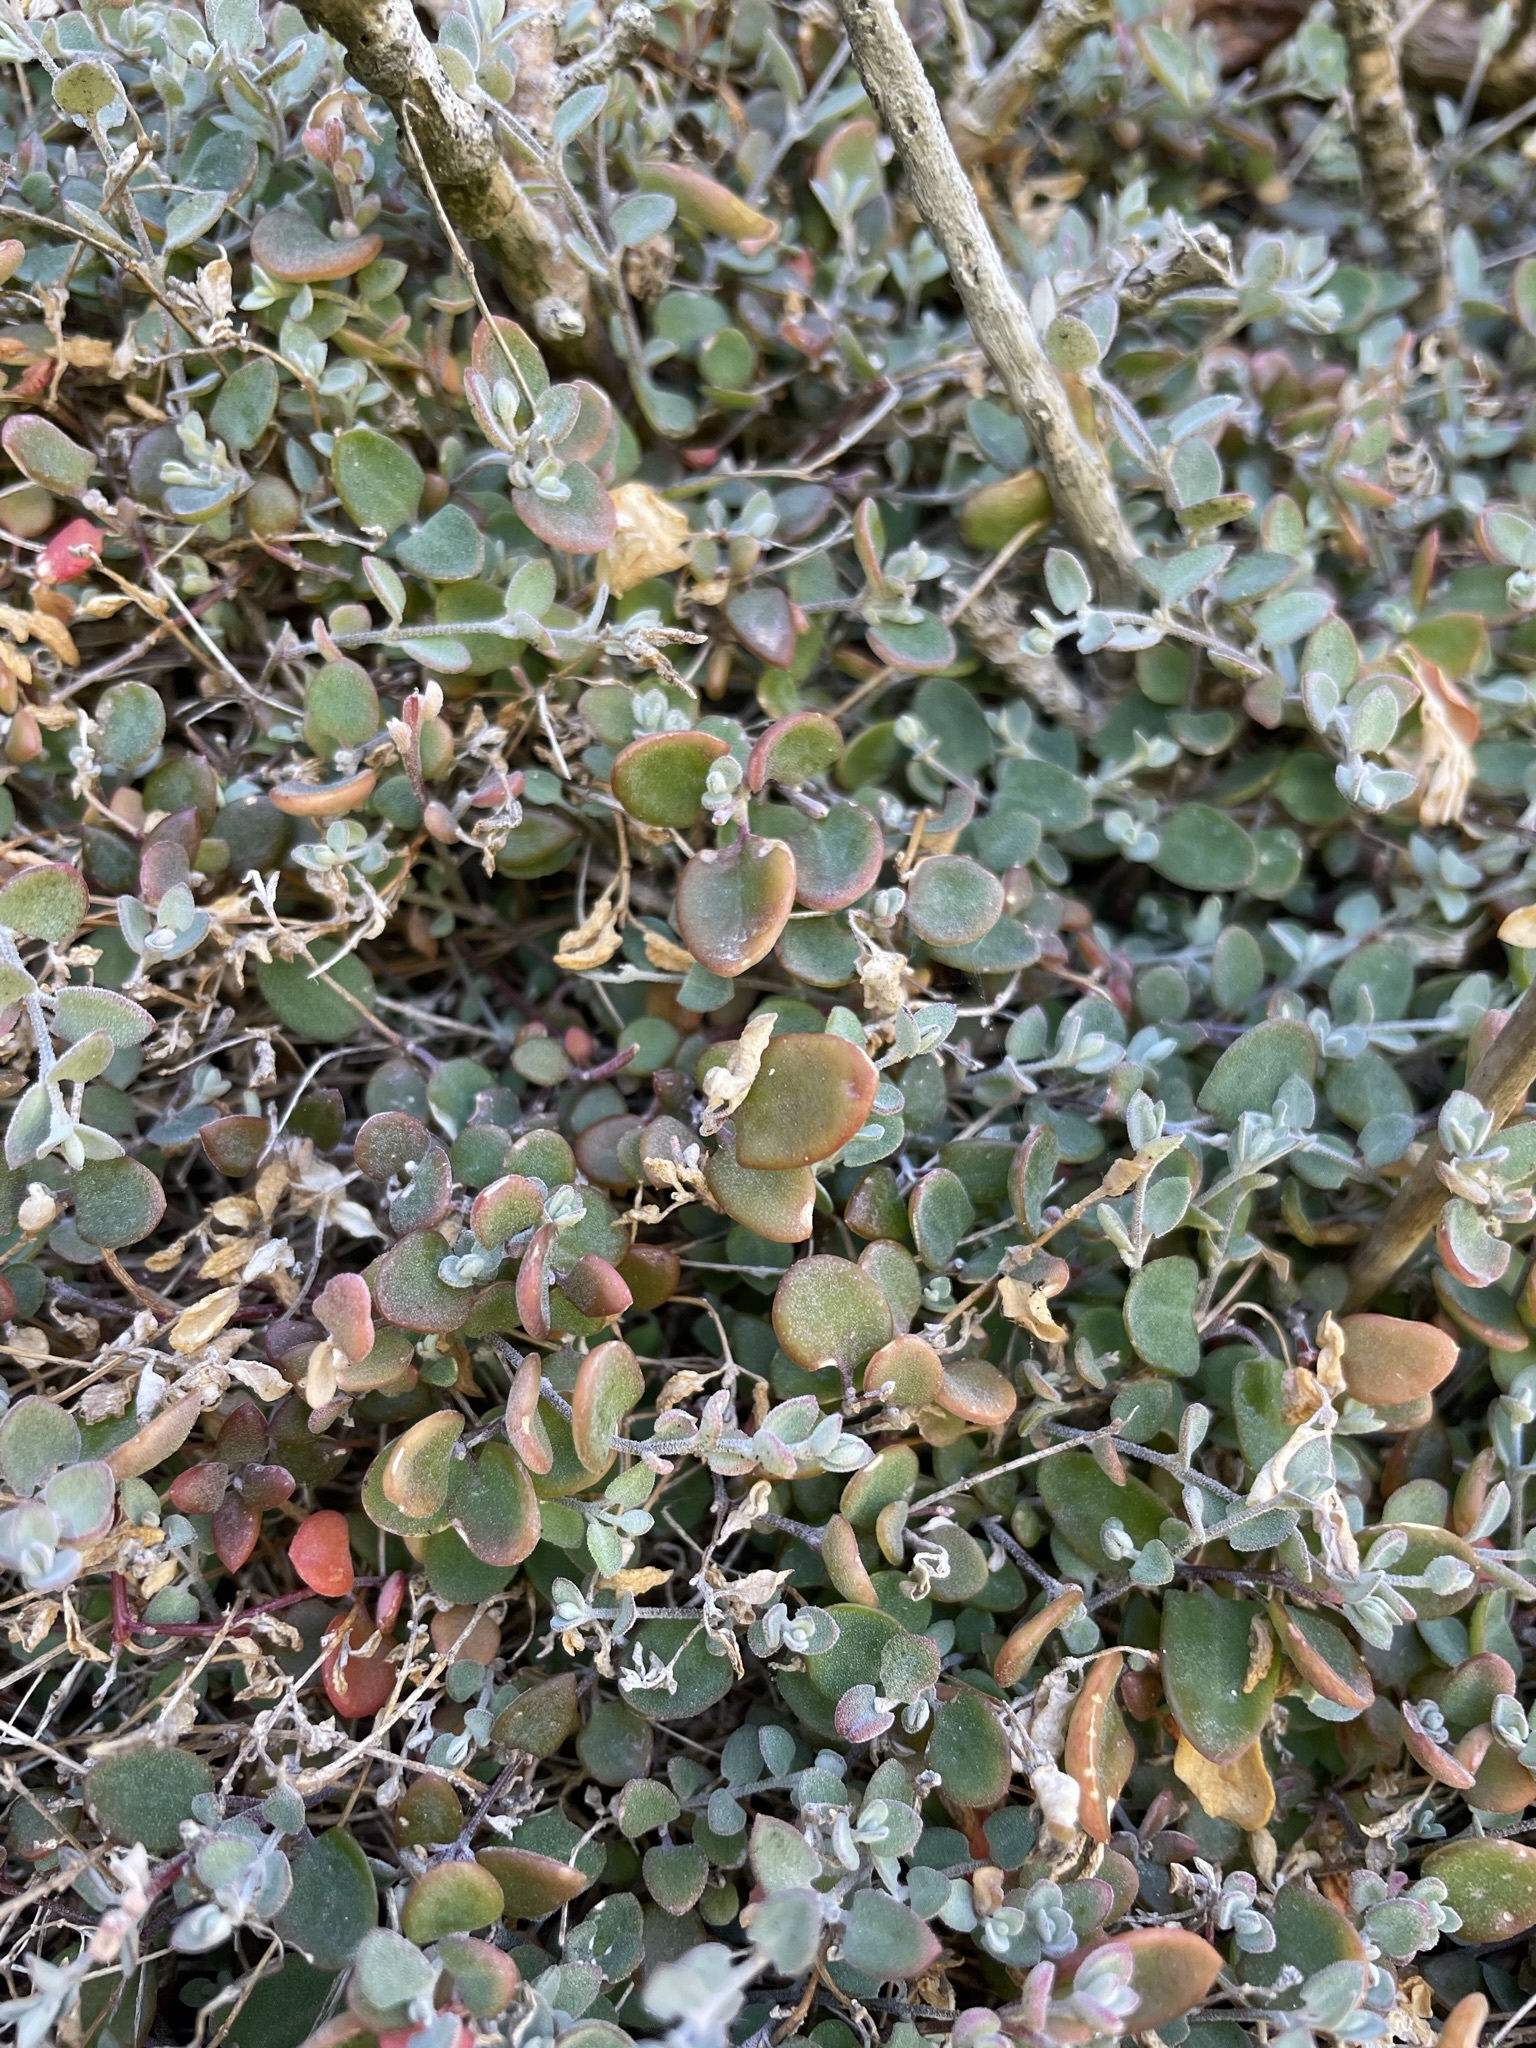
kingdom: Plantae
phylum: Tracheophyta
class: Magnoliopsida
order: Caryophyllales
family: Amaranthaceae
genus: Chenopodium
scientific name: Chenopodium triandrum
